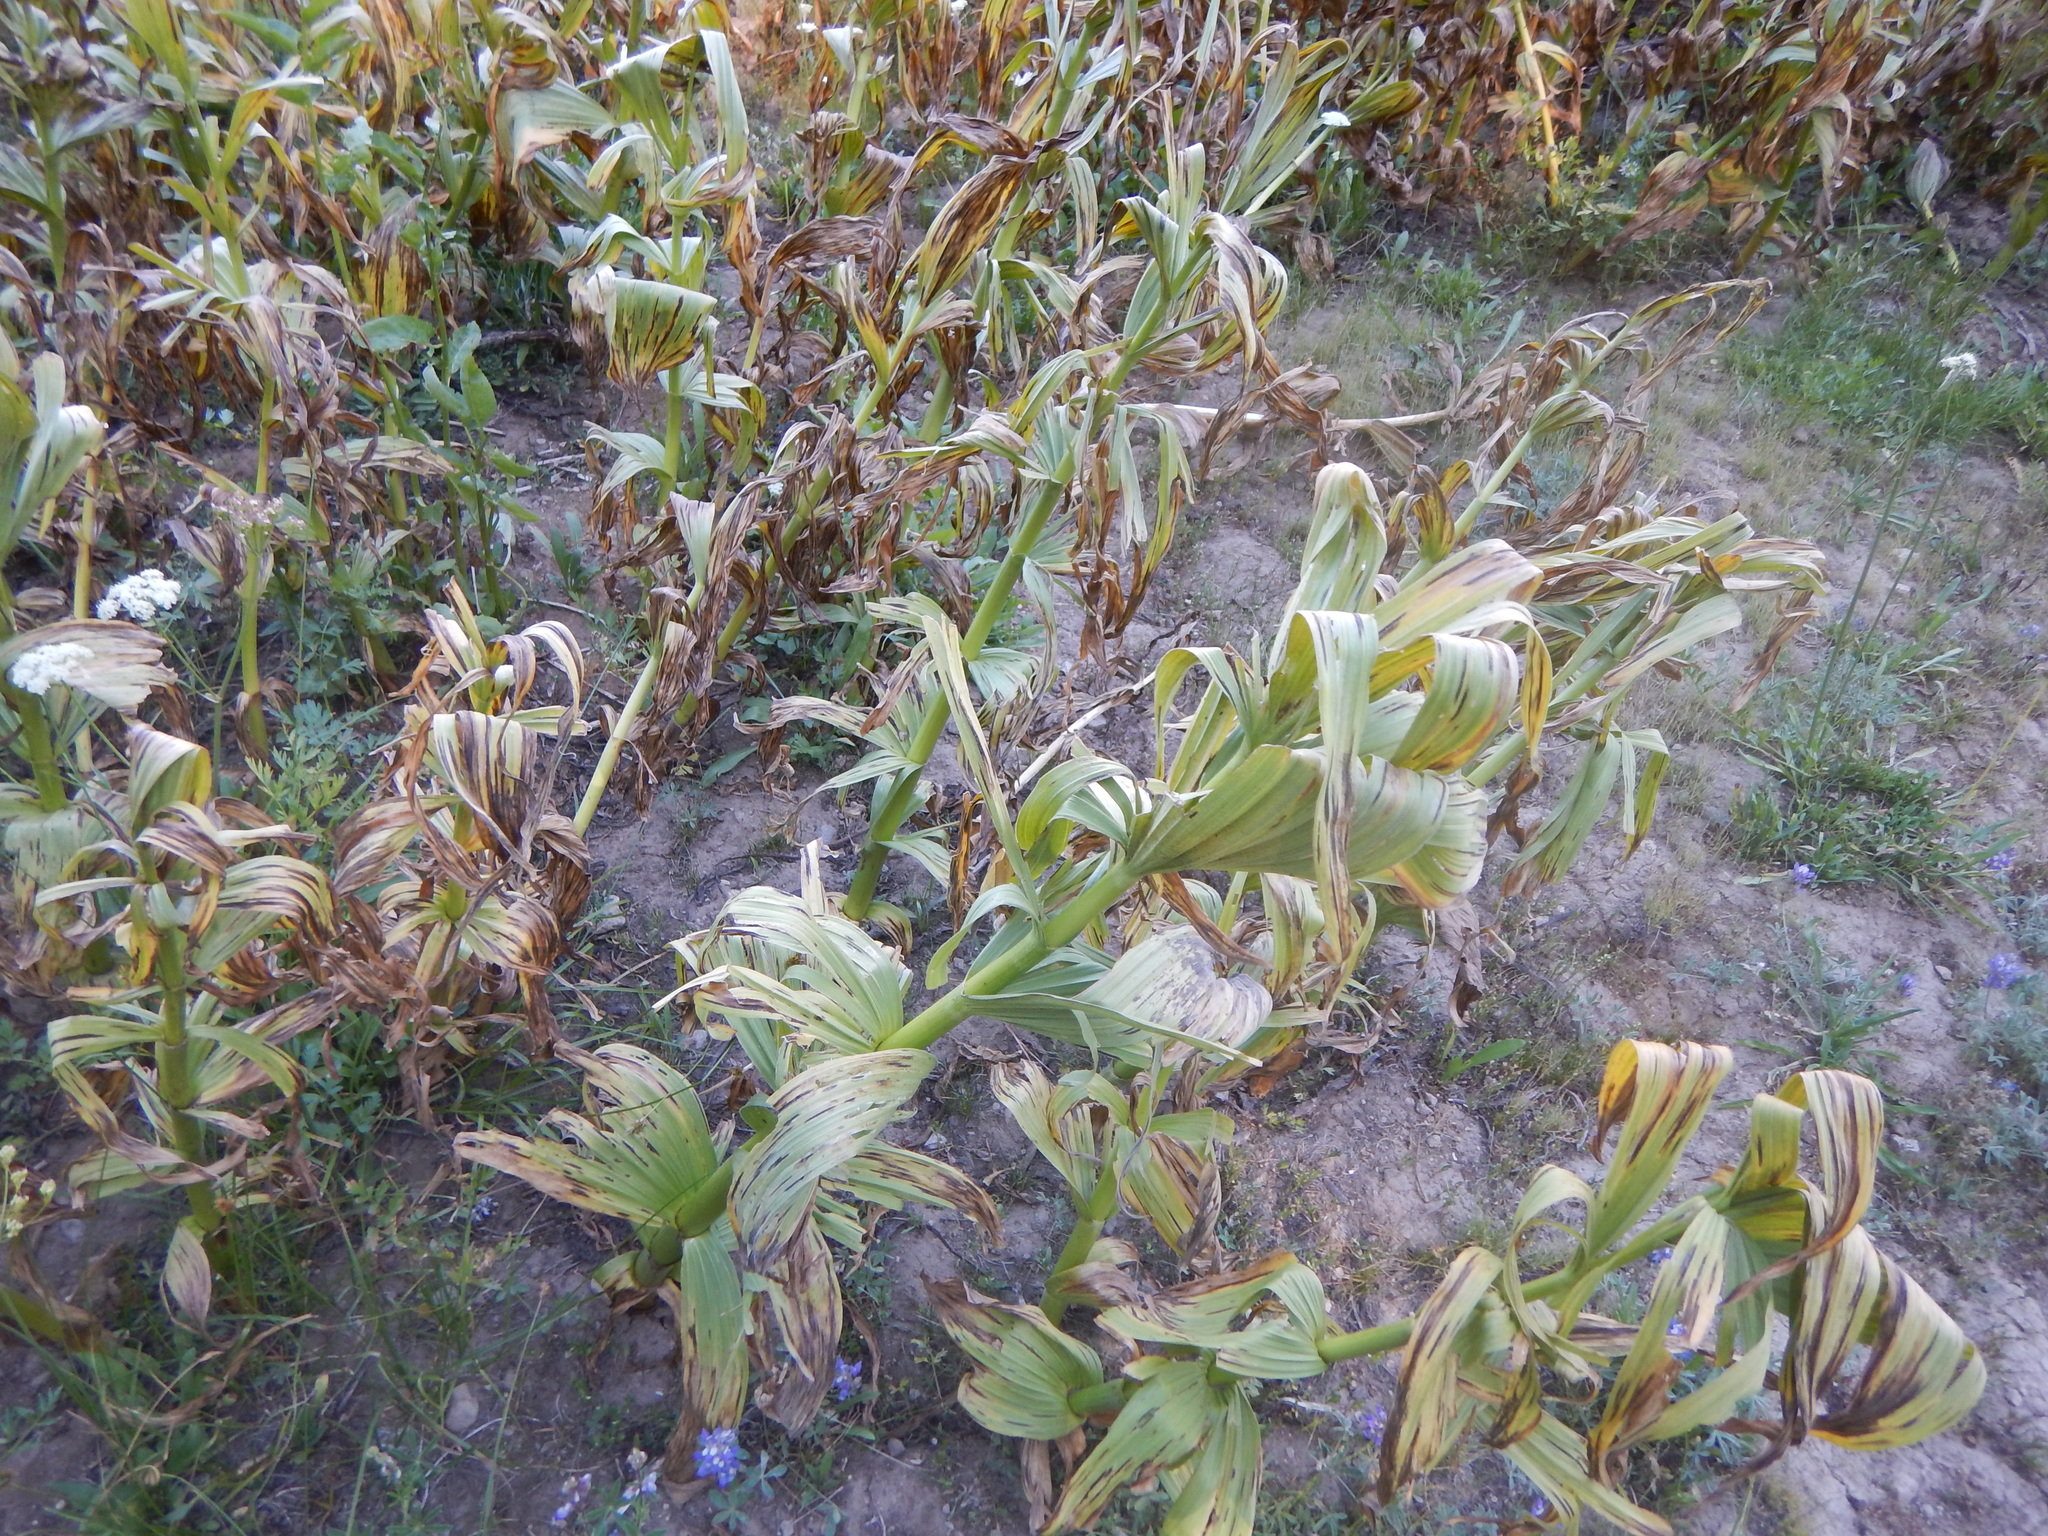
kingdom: Plantae
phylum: Tracheophyta
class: Liliopsida
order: Liliales
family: Melanthiaceae
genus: Veratrum
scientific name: Veratrum californicum
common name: California veratrum
